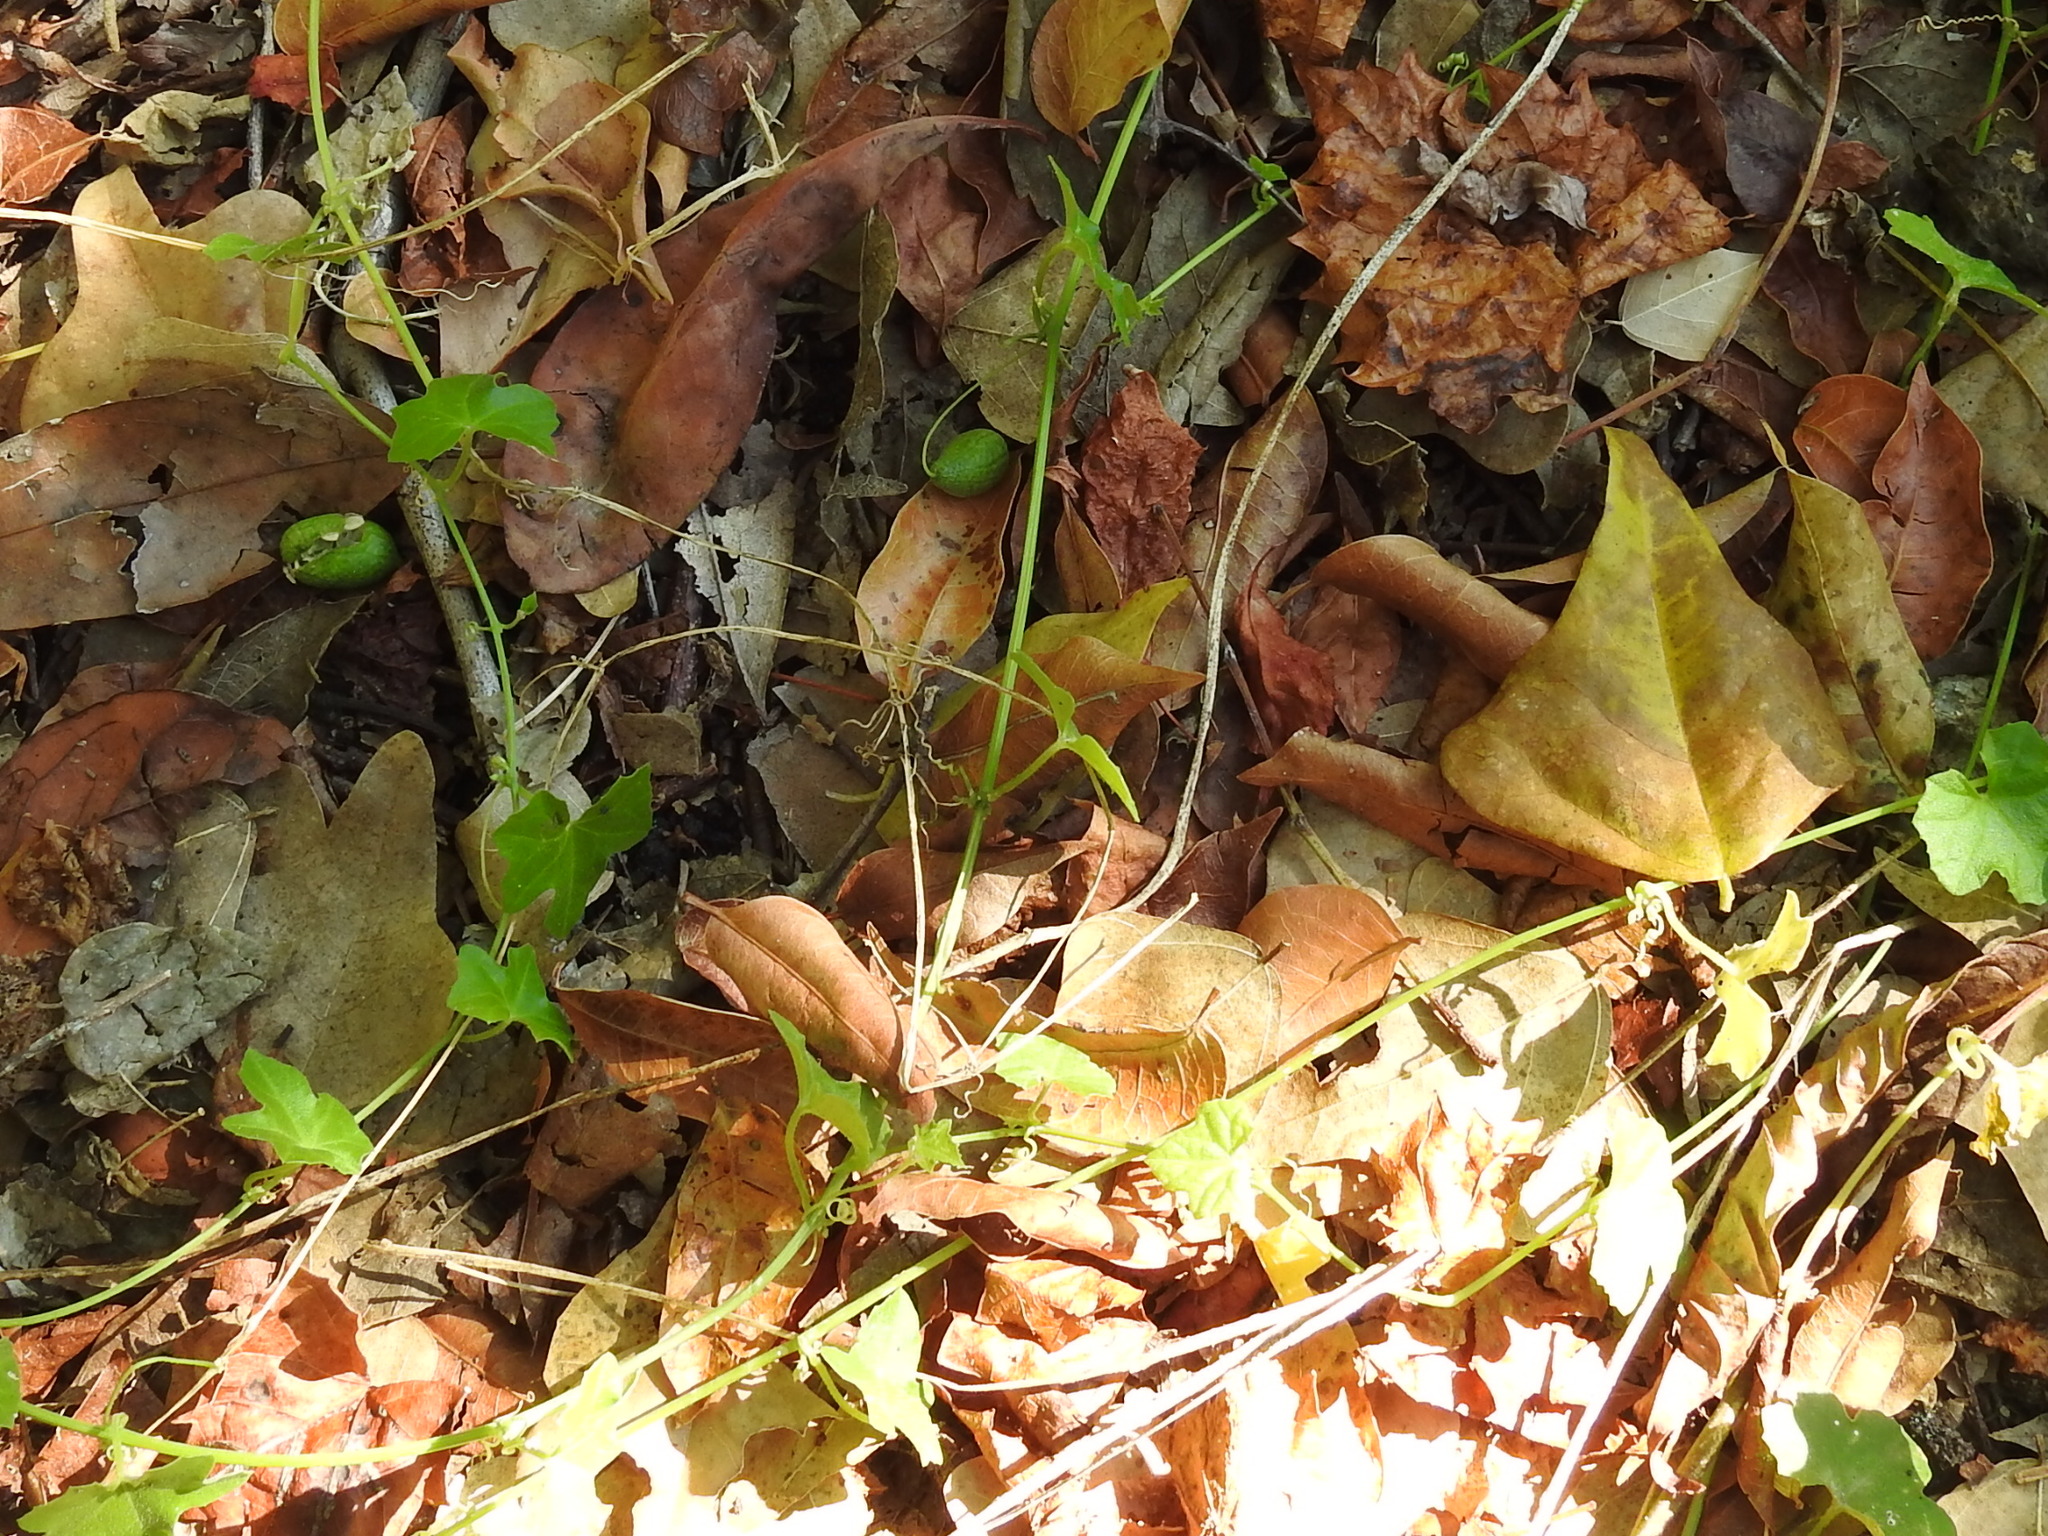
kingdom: Plantae
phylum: Tracheophyta
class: Magnoliopsida
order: Cucurbitales
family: Cucurbitaceae
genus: Melothria
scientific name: Melothria pendula
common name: Creeping-cucumber
